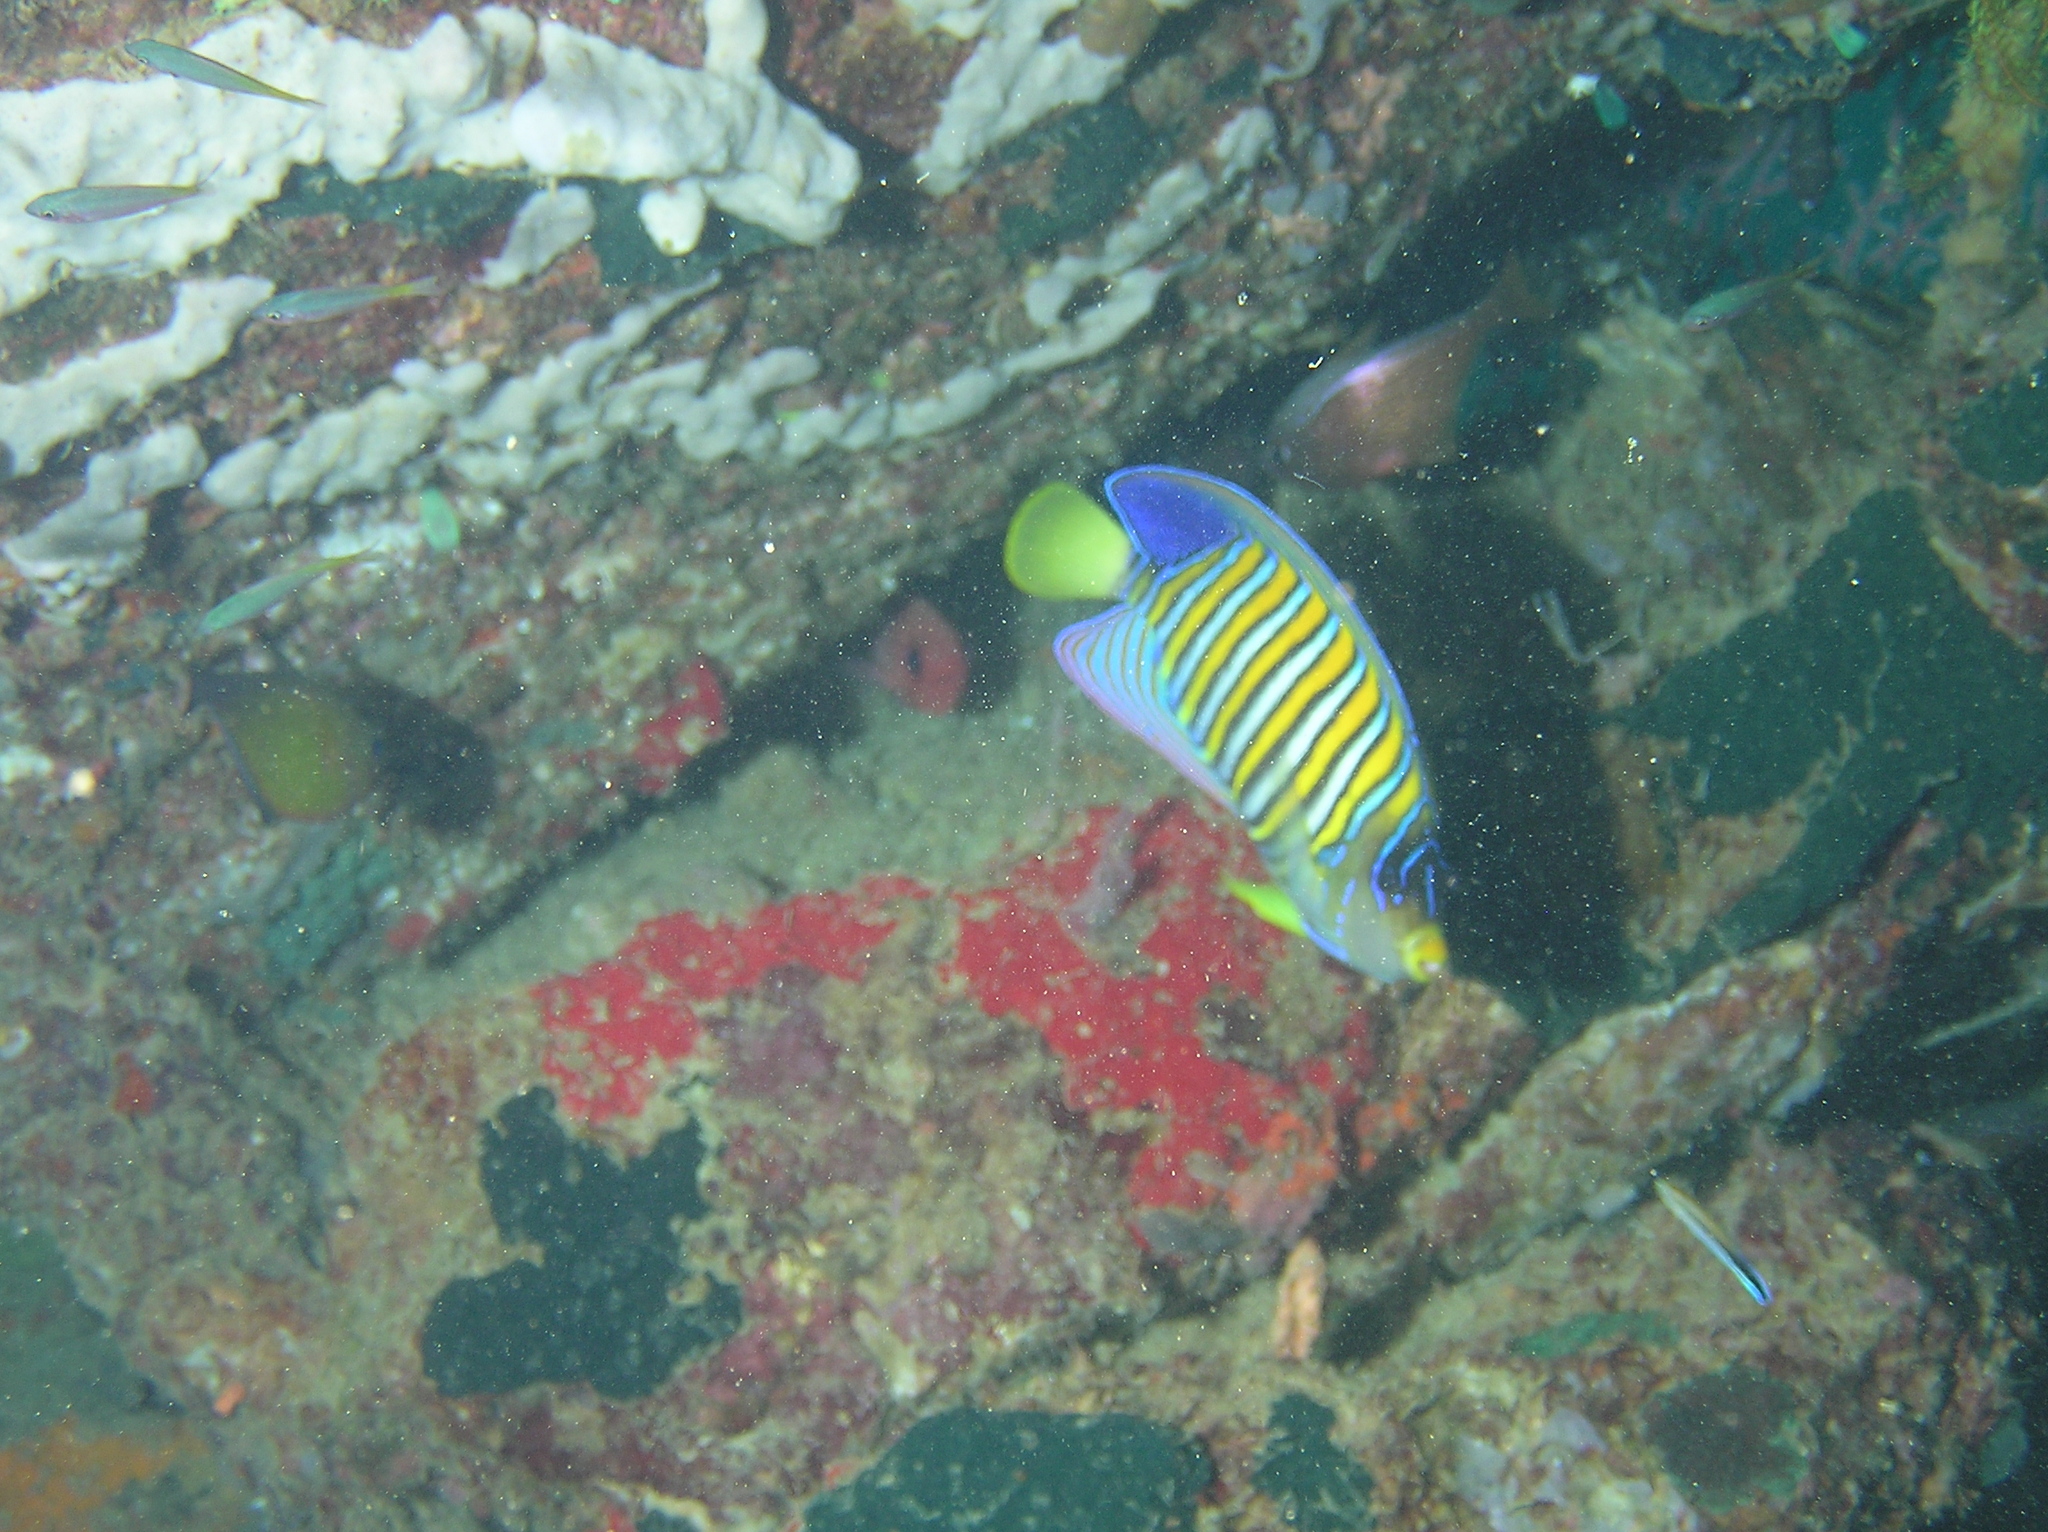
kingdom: Animalia
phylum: Chordata
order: Perciformes
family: Pomacanthidae
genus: Pygoplites
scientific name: Pygoplites diacanthus
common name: Regal angelfish
